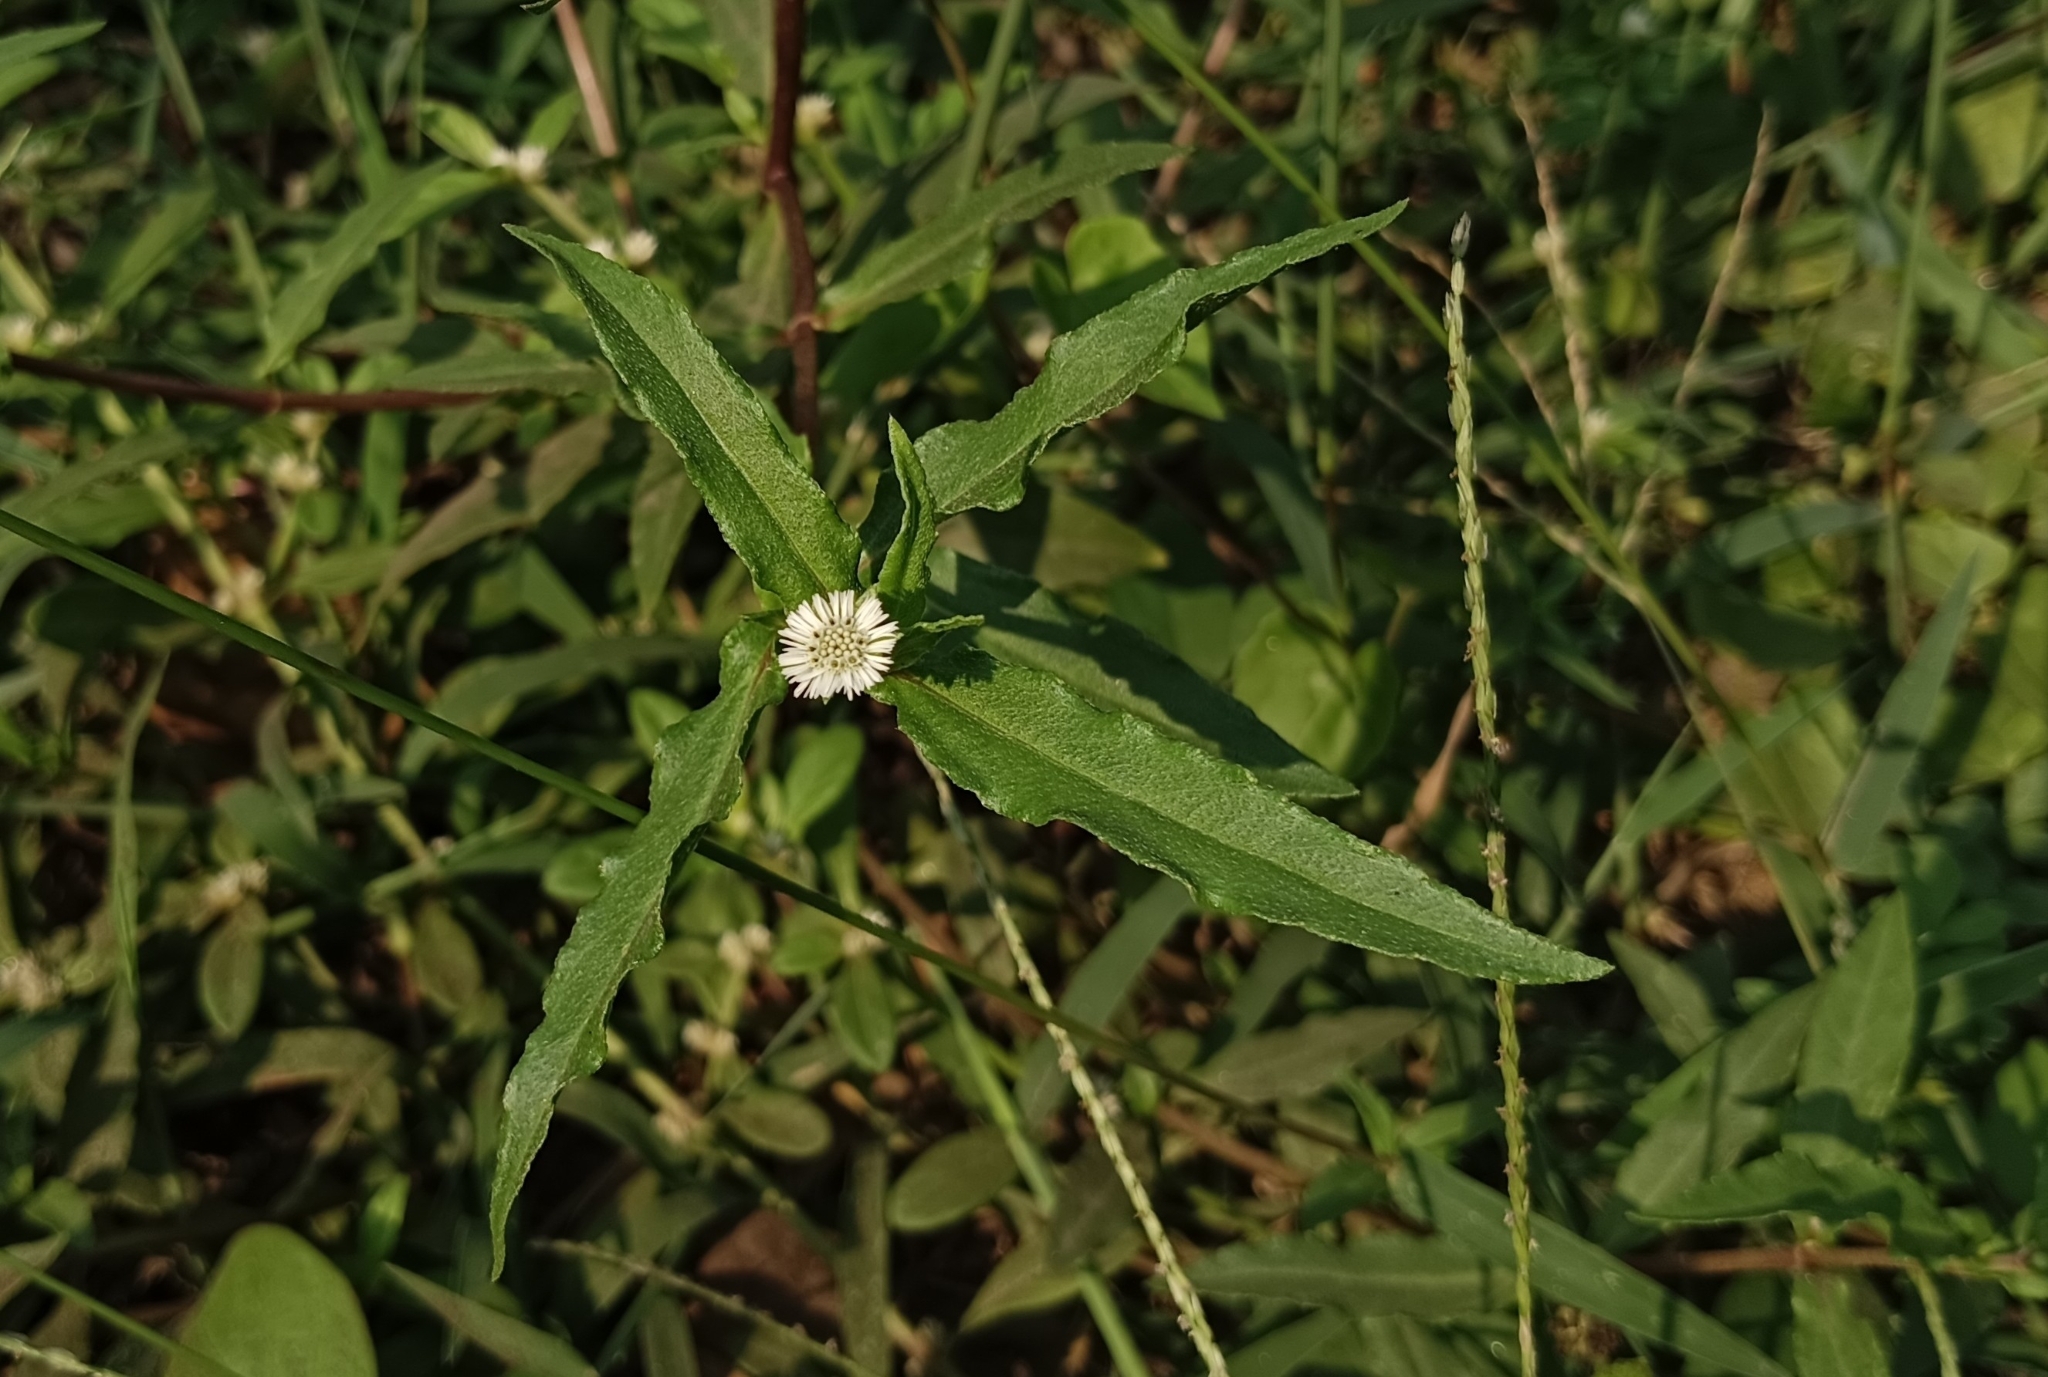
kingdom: Plantae
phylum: Tracheophyta
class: Magnoliopsida
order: Asterales
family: Asteraceae
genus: Eclipta
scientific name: Eclipta prostrata
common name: False daisy
